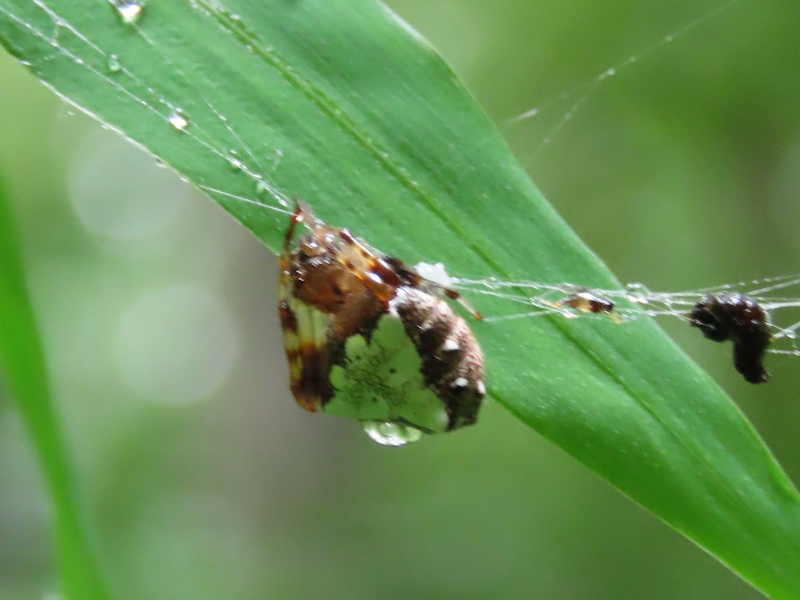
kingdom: Animalia
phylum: Arthropoda
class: Arachnida
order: Araneae
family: Araneidae
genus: Verrucosa
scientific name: Verrucosa arenata
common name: Orb weavers
